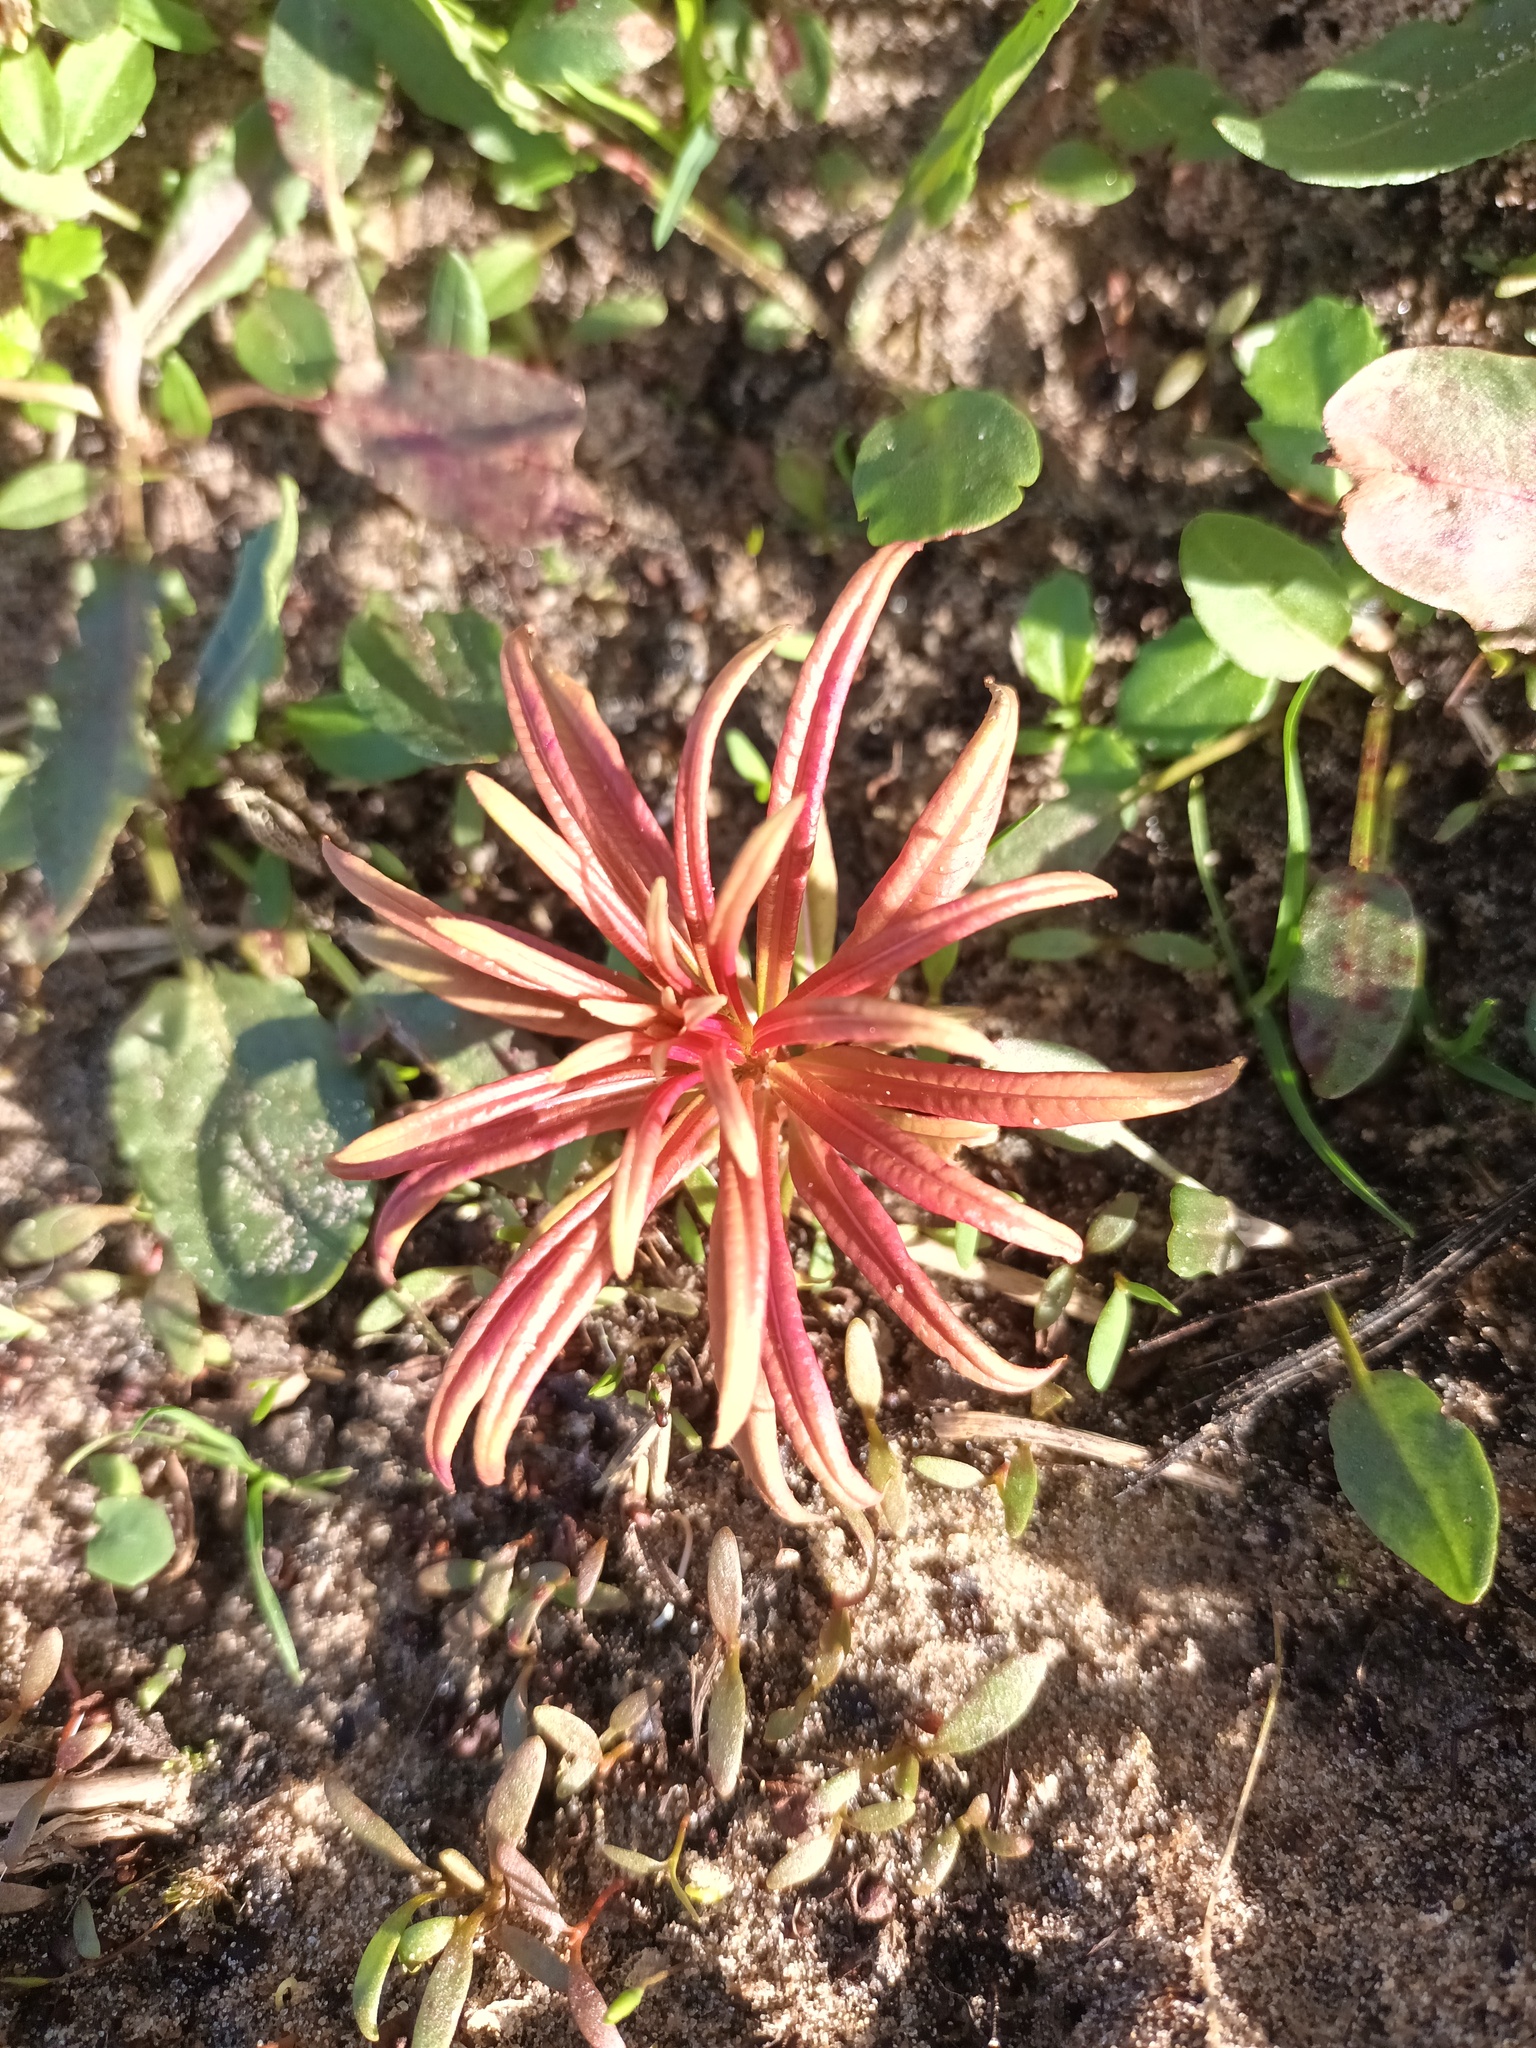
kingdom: Plantae
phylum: Tracheophyta
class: Magnoliopsida
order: Myrtales
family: Onagraceae
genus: Chamaenerion
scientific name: Chamaenerion angustifolium
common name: Fireweed
